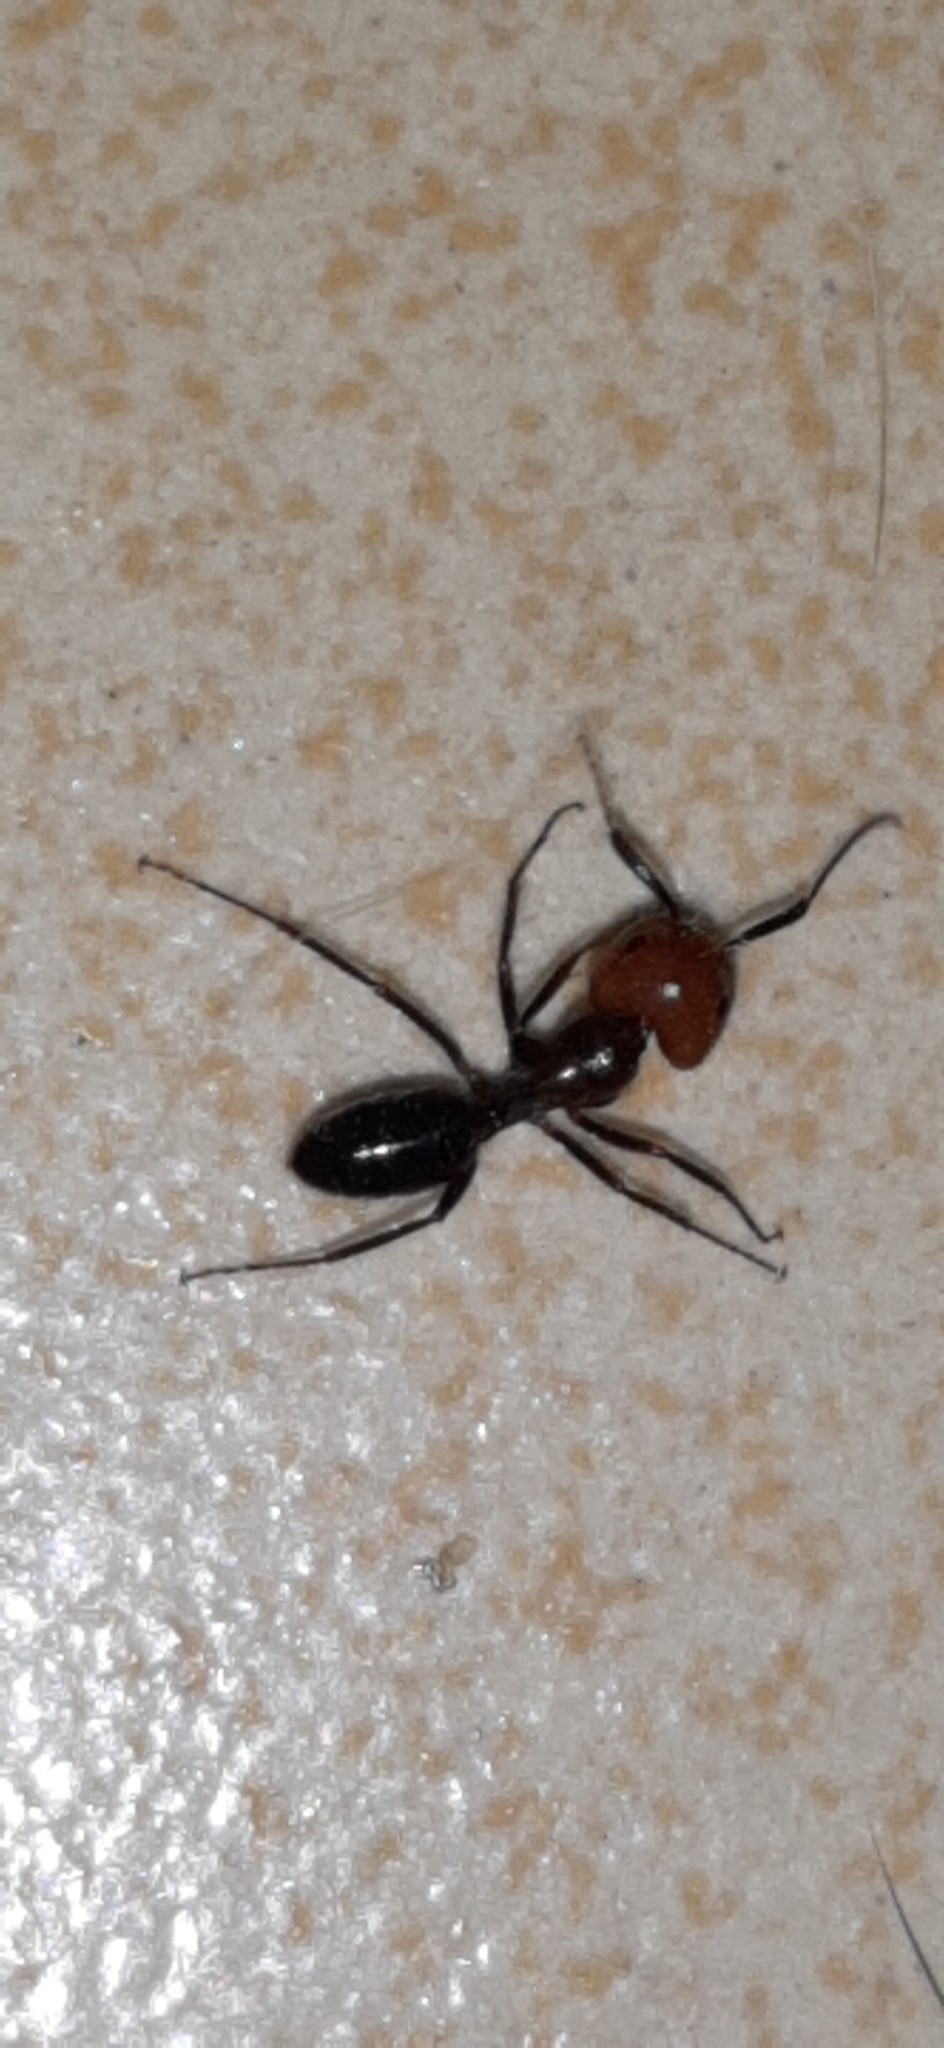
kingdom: Animalia
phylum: Arthropoda
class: Insecta
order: Hymenoptera
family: Formicidae
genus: Camponotus
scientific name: Camponotus bugnioni
